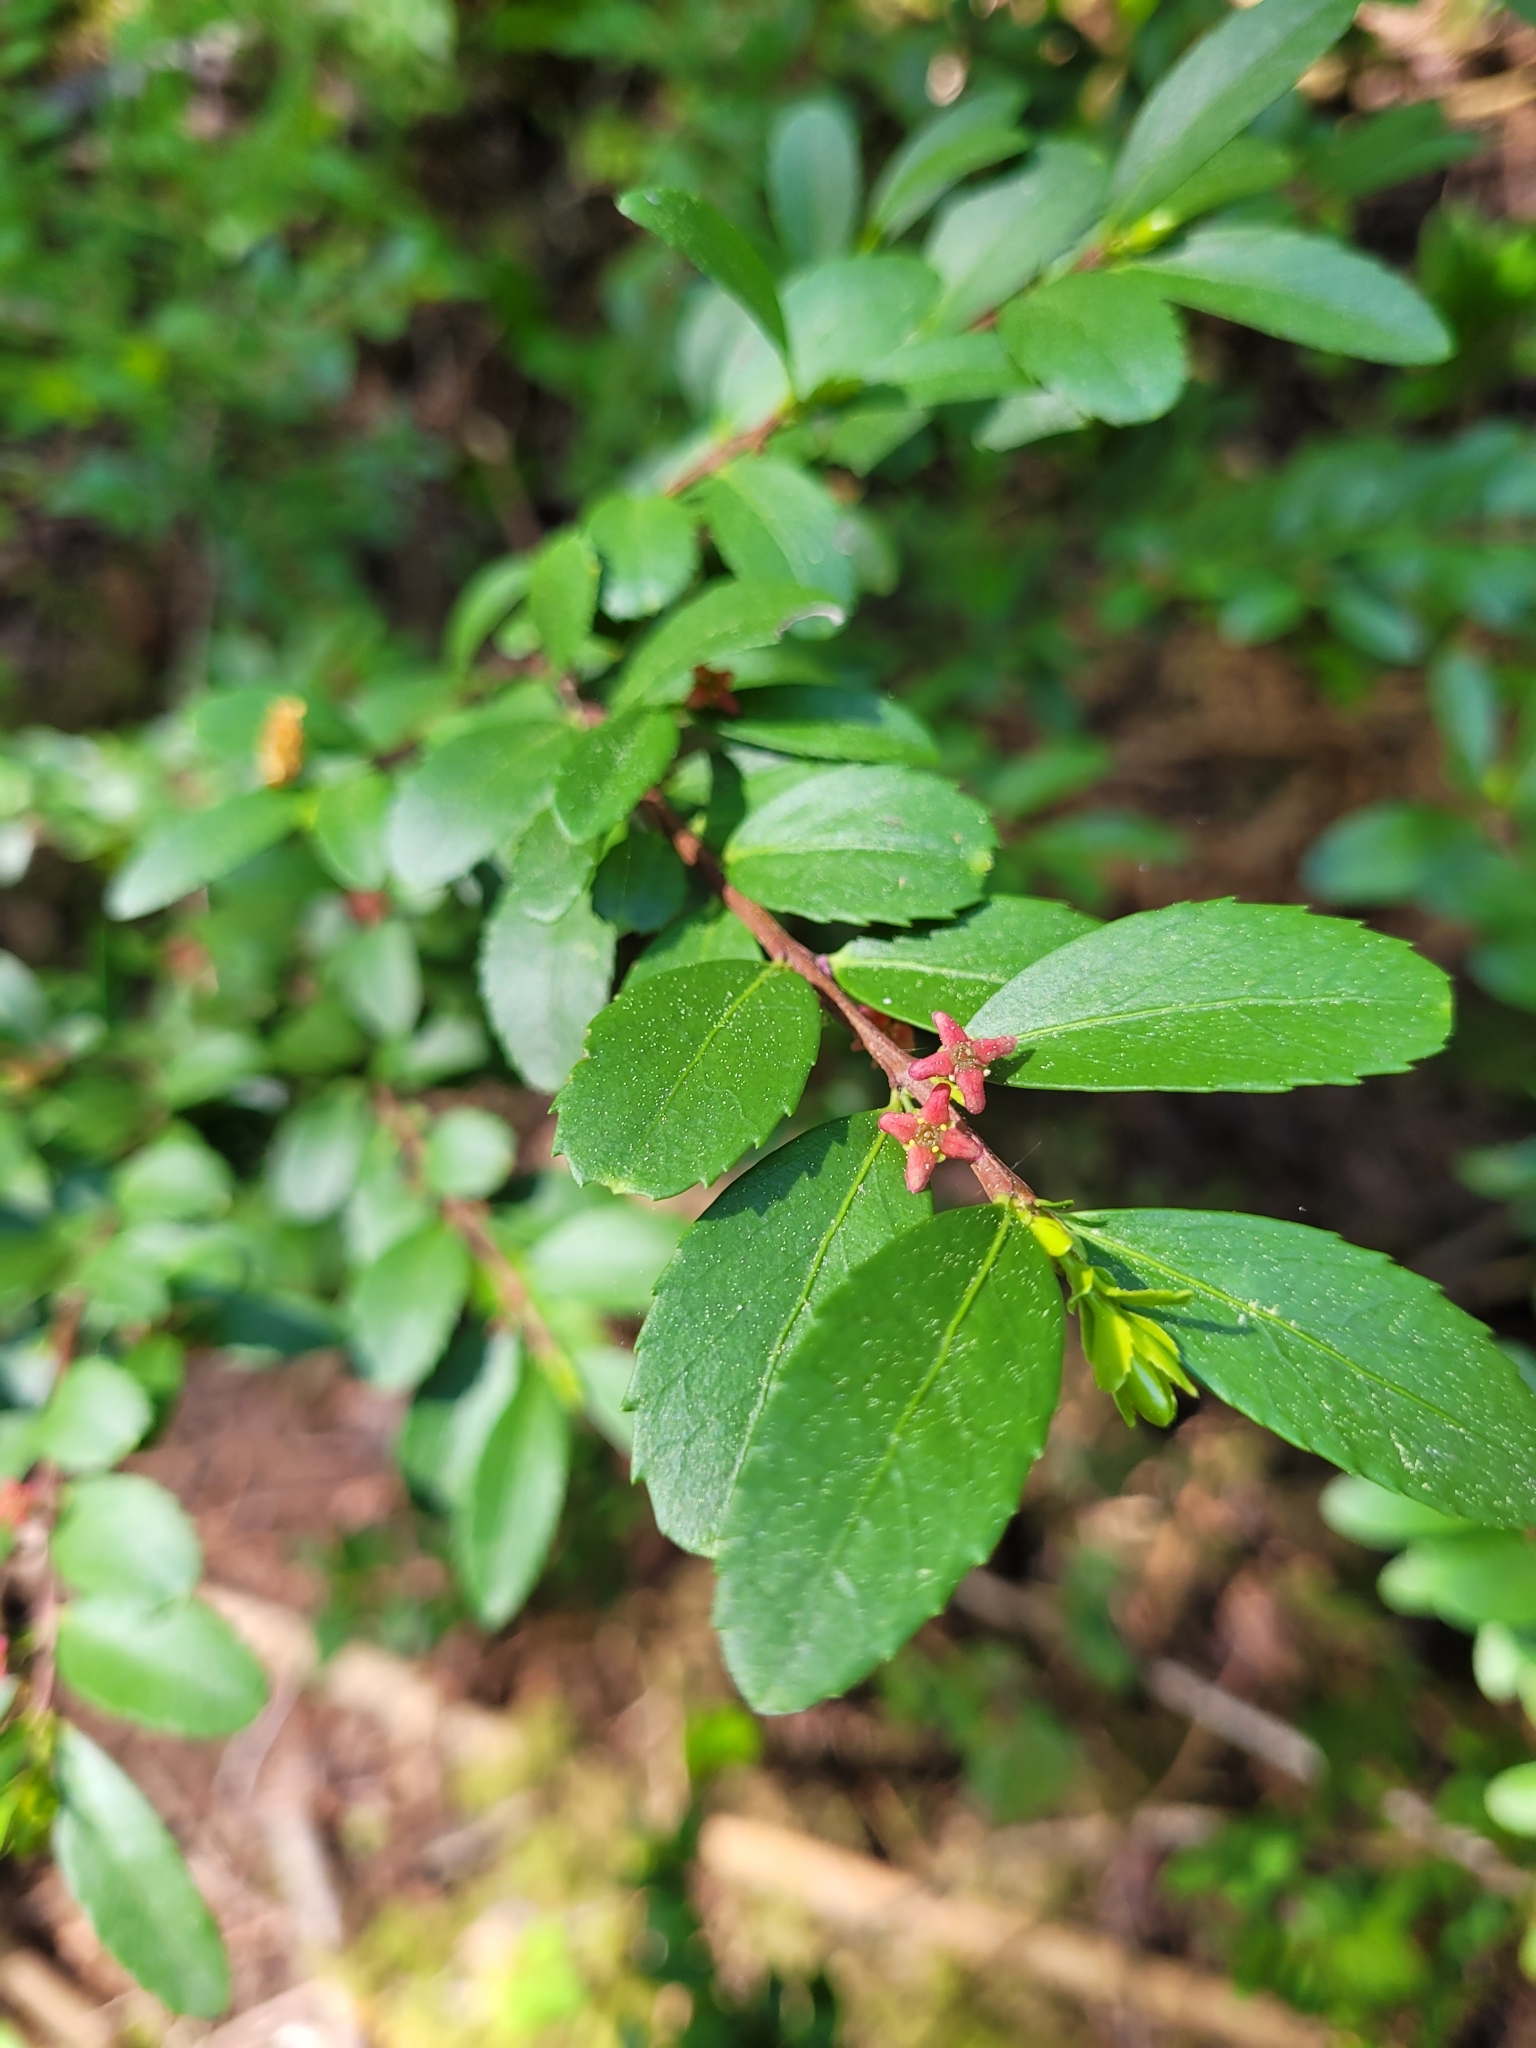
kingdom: Plantae
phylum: Tracheophyta
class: Magnoliopsida
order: Celastrales
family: Celastraceae
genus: Paxistima
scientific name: Paxistima myrsinites
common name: Mountain-lover
